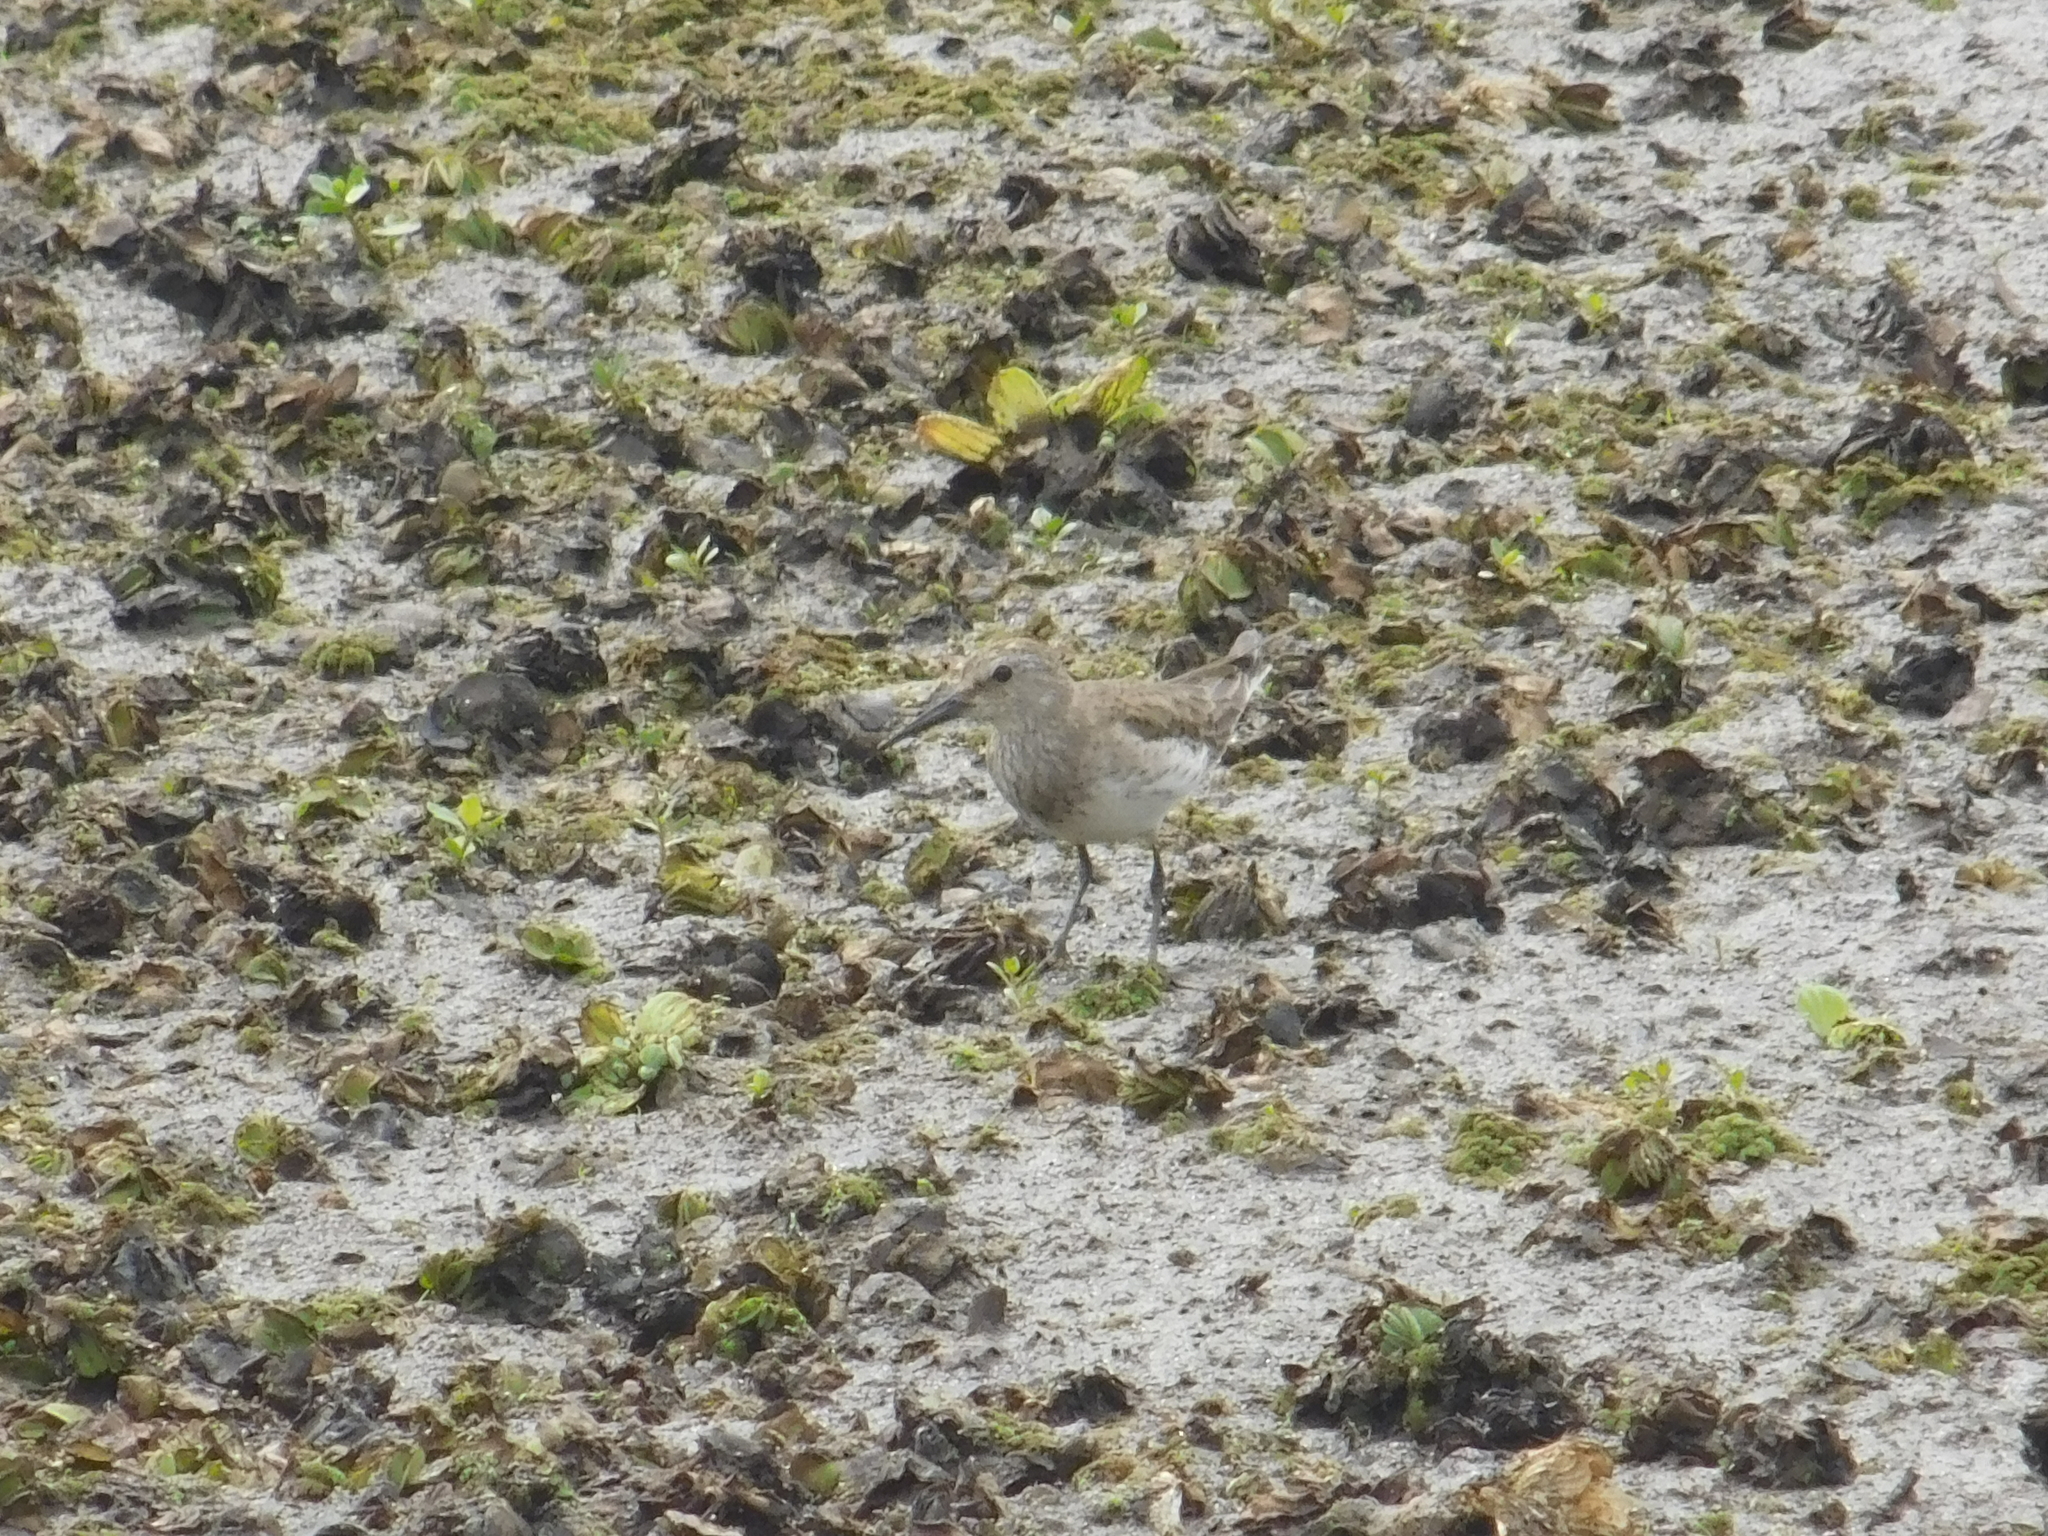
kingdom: Animalia
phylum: Chordata
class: Aves
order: Charadriiformes
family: Scolopacidae
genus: Calidris
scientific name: Calidris fuscicollis
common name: White-rumped sandpiper
